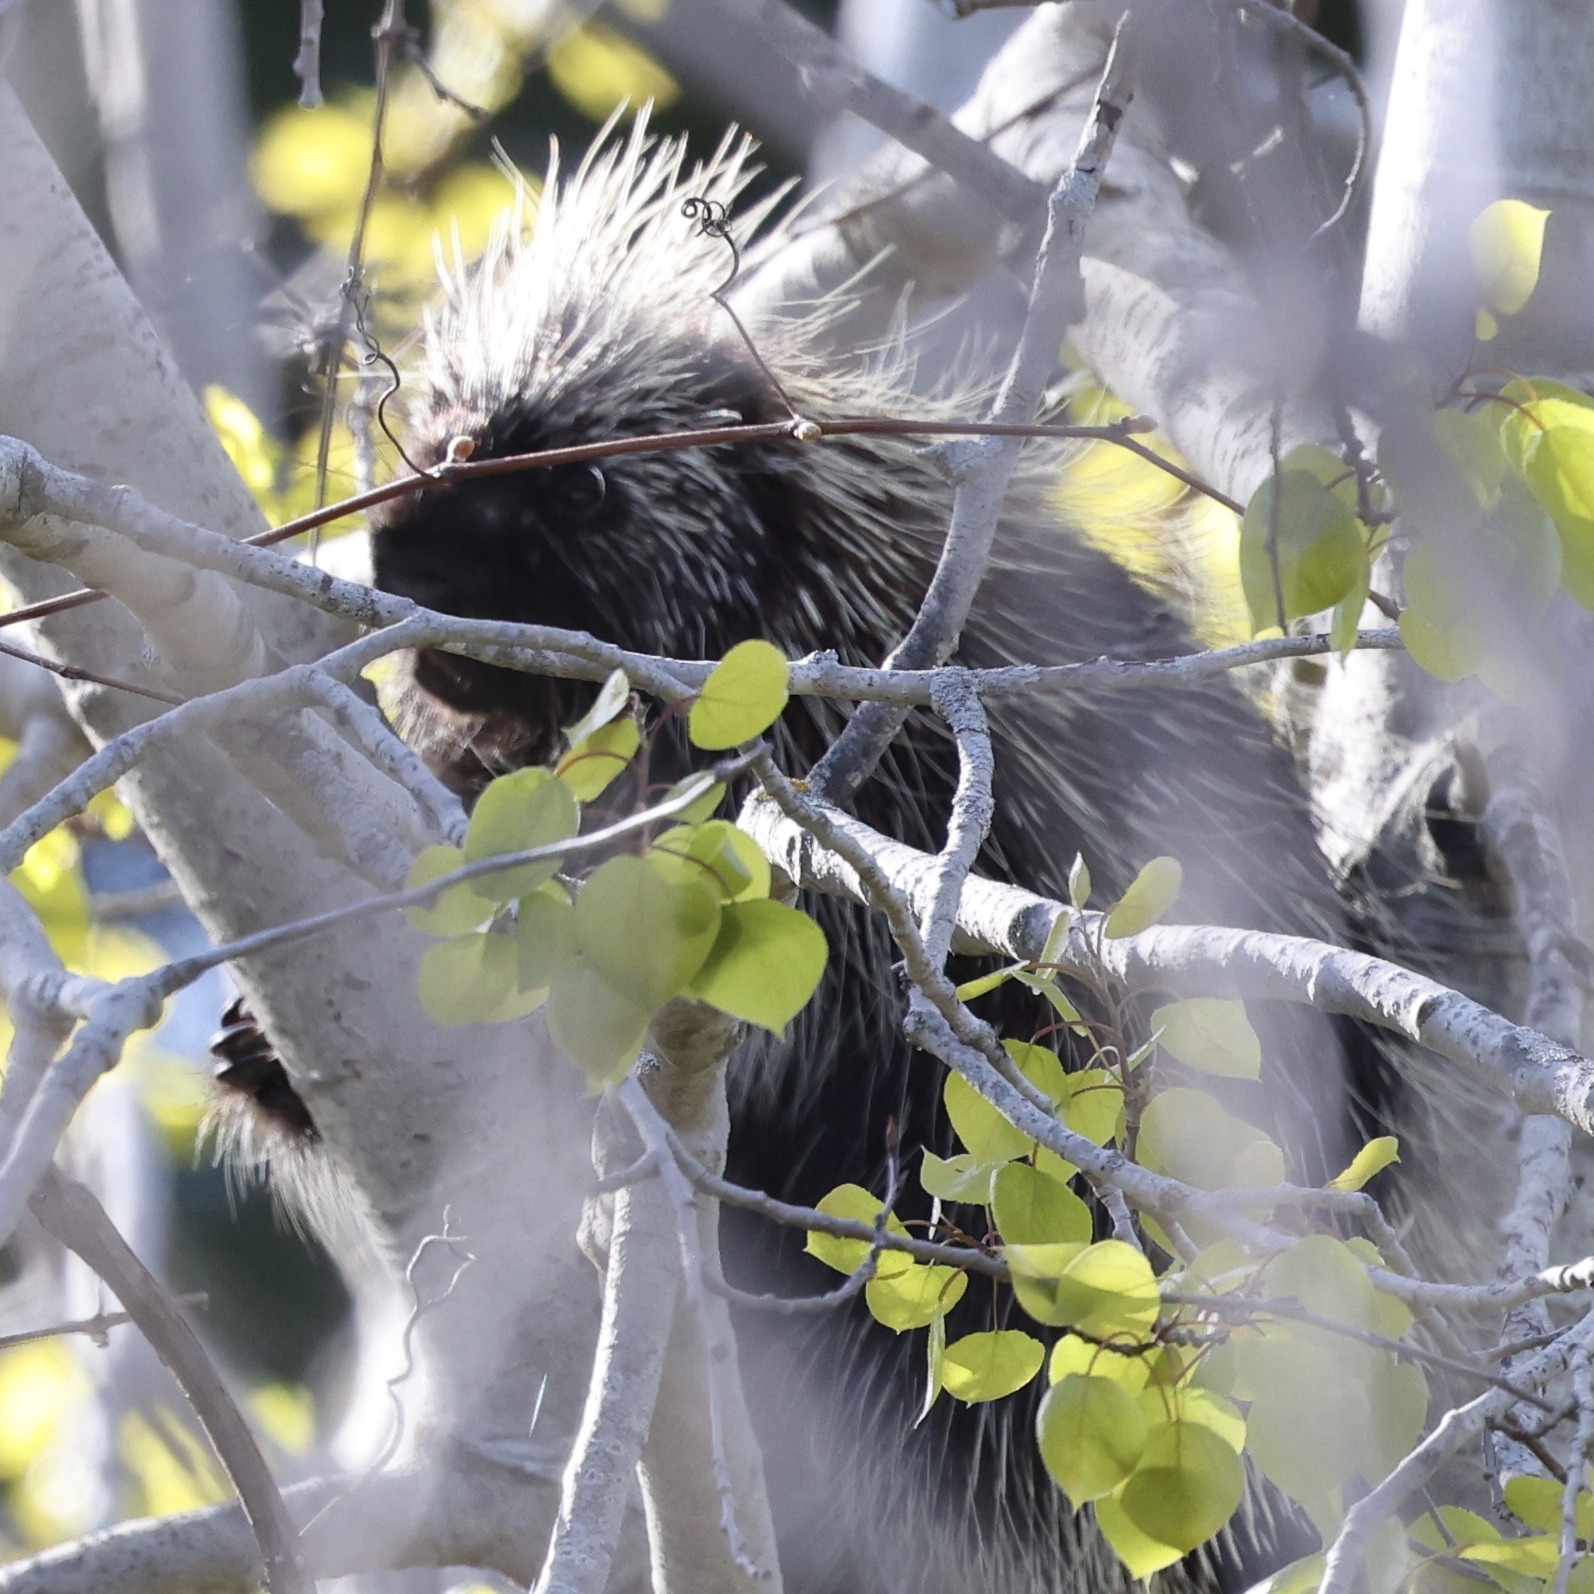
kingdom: Animalia
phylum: Chordata
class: Mammalia
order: Rodentia
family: Erethizontidae
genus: Erethizon
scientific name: Erethizon dorsatus
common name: North american porcupine
